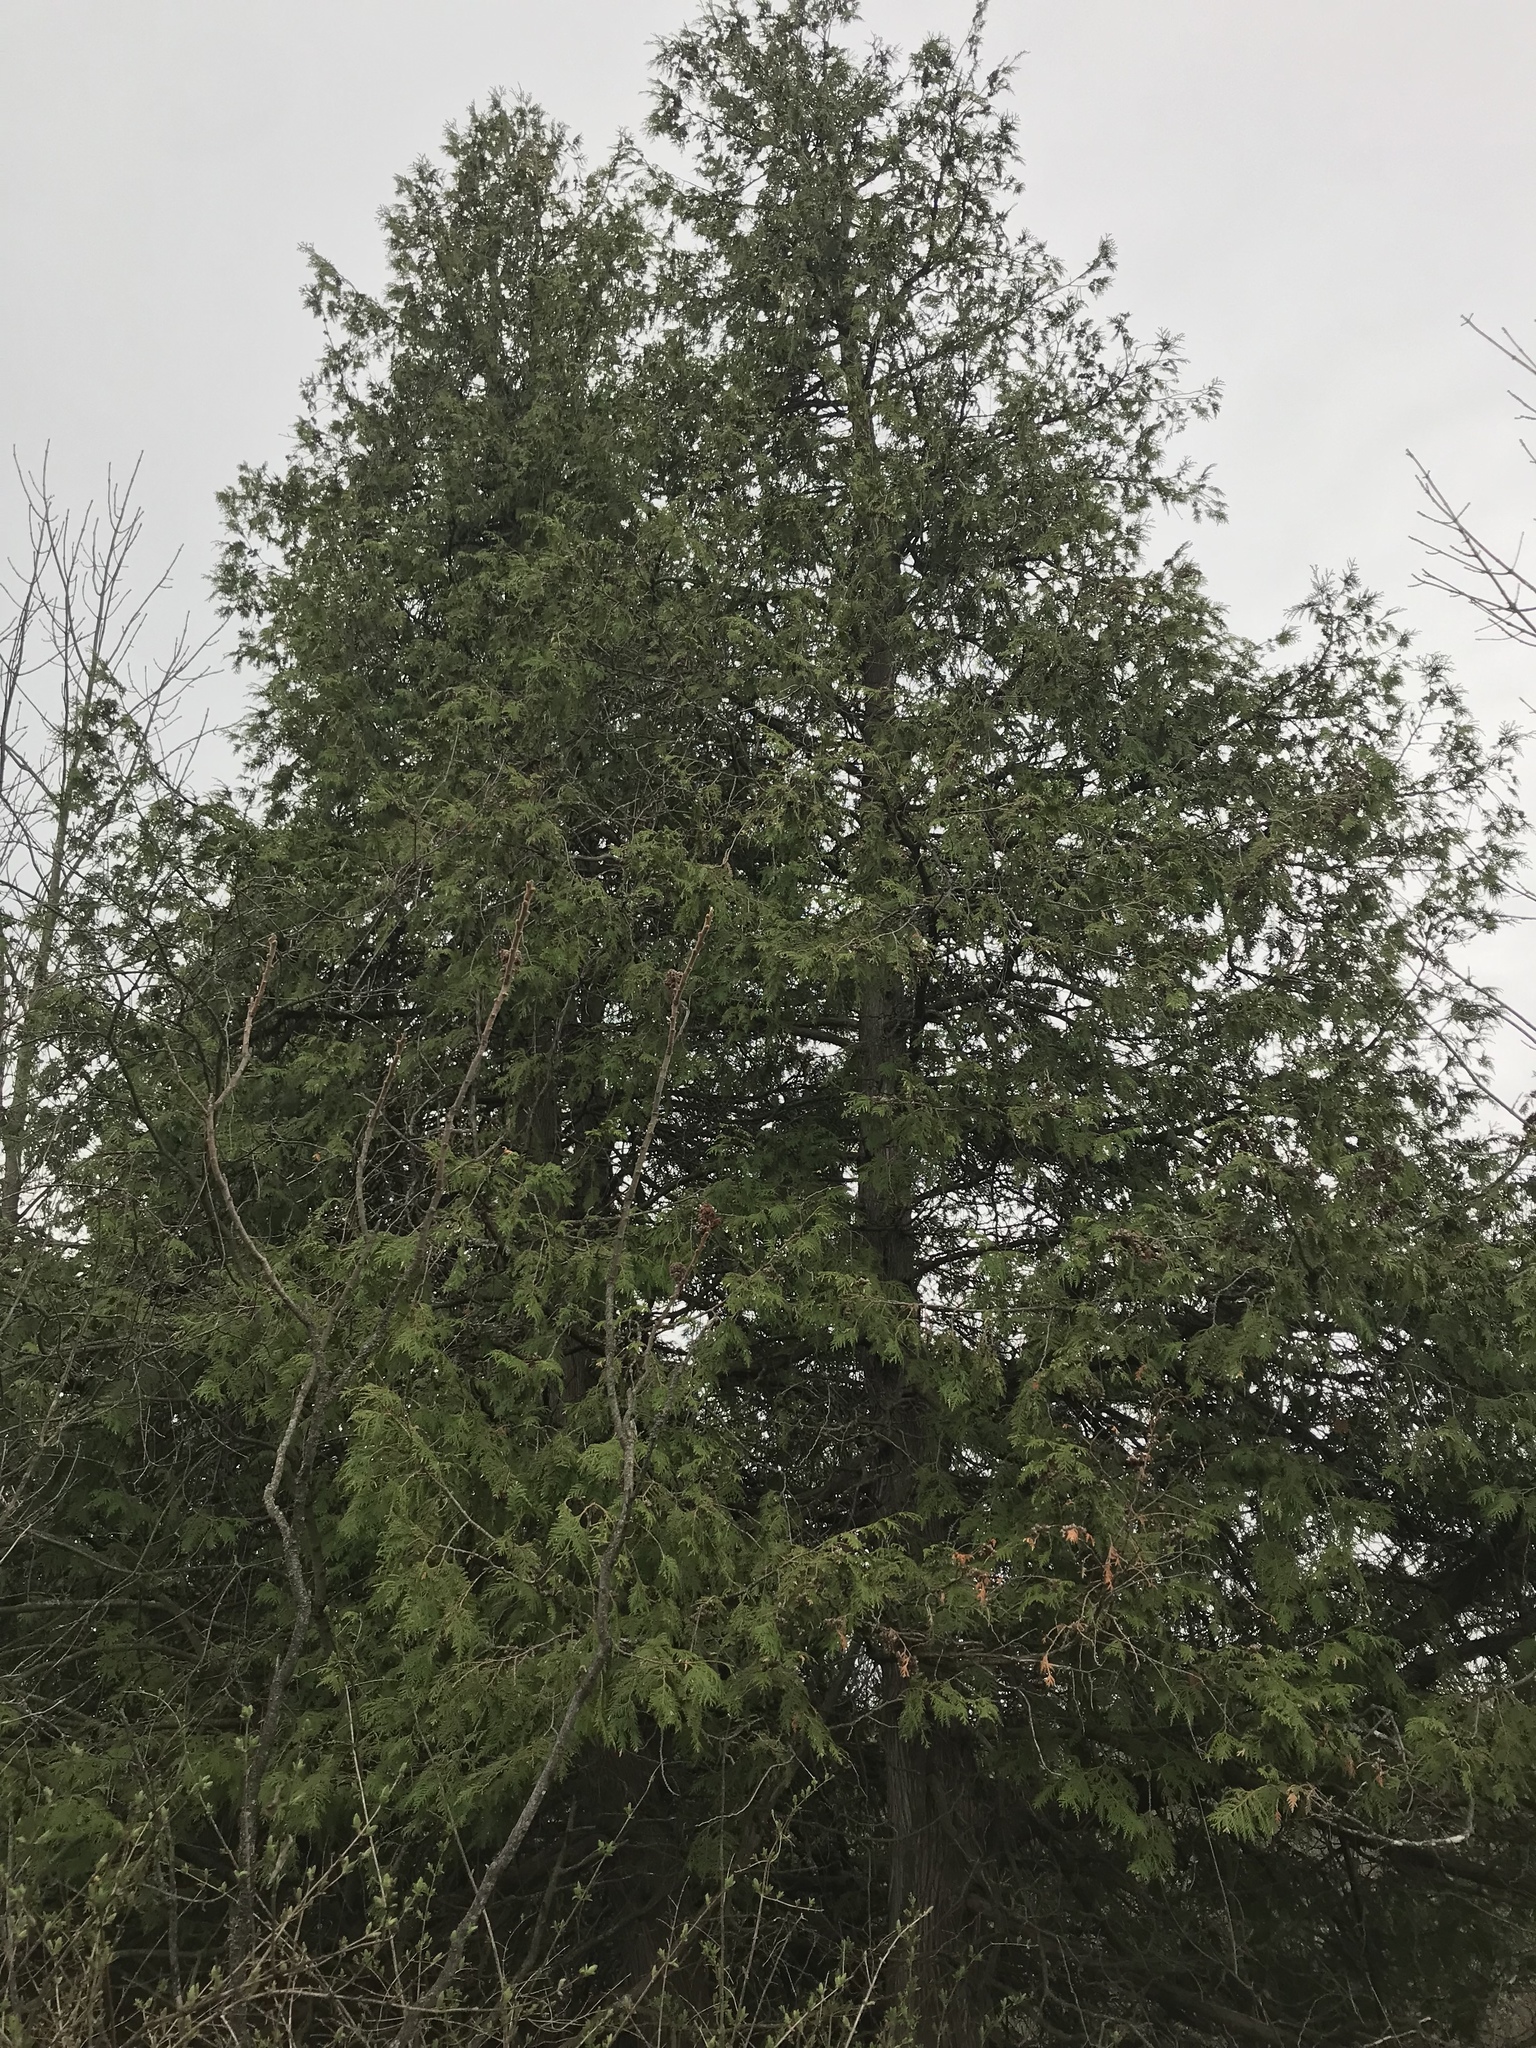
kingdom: Plantae
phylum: Tracheophyta
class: Pinopsida
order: Pinales
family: Cupressaceae
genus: Thuja
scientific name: Thuja occidentalis
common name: Northern white-cedar
